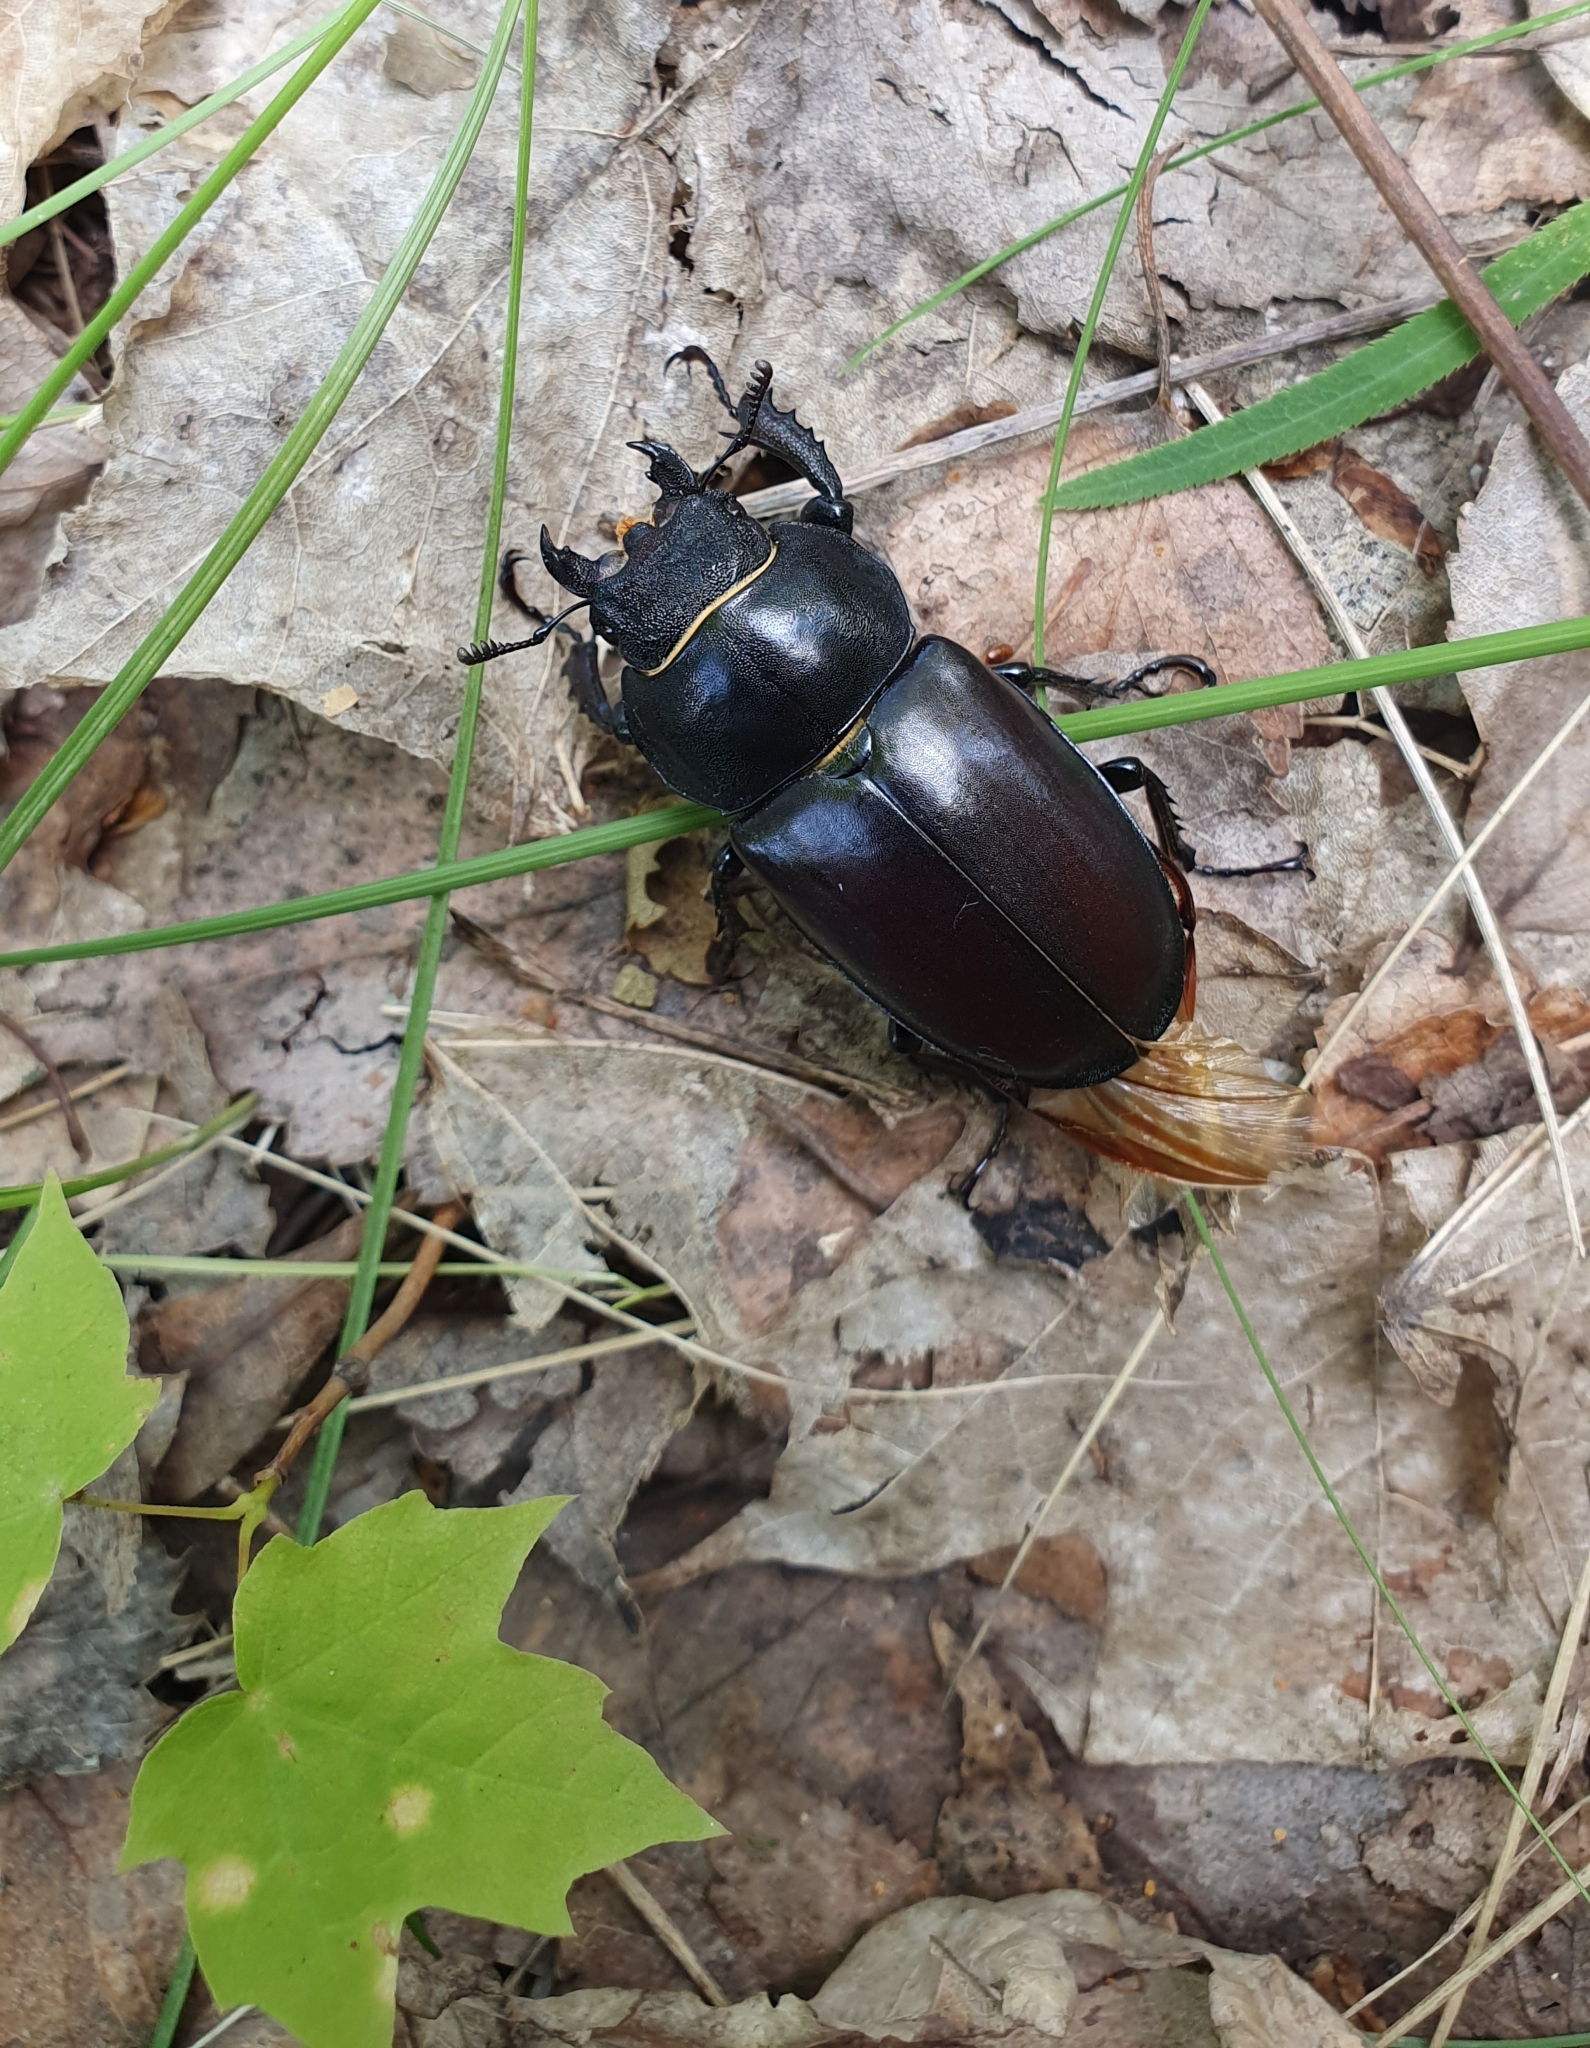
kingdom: Animalia
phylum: Arthropoda
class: Insecta
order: Coleoptera
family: Lucanidae
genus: Lucanus
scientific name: Lucanus cervus
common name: Stag beetle
